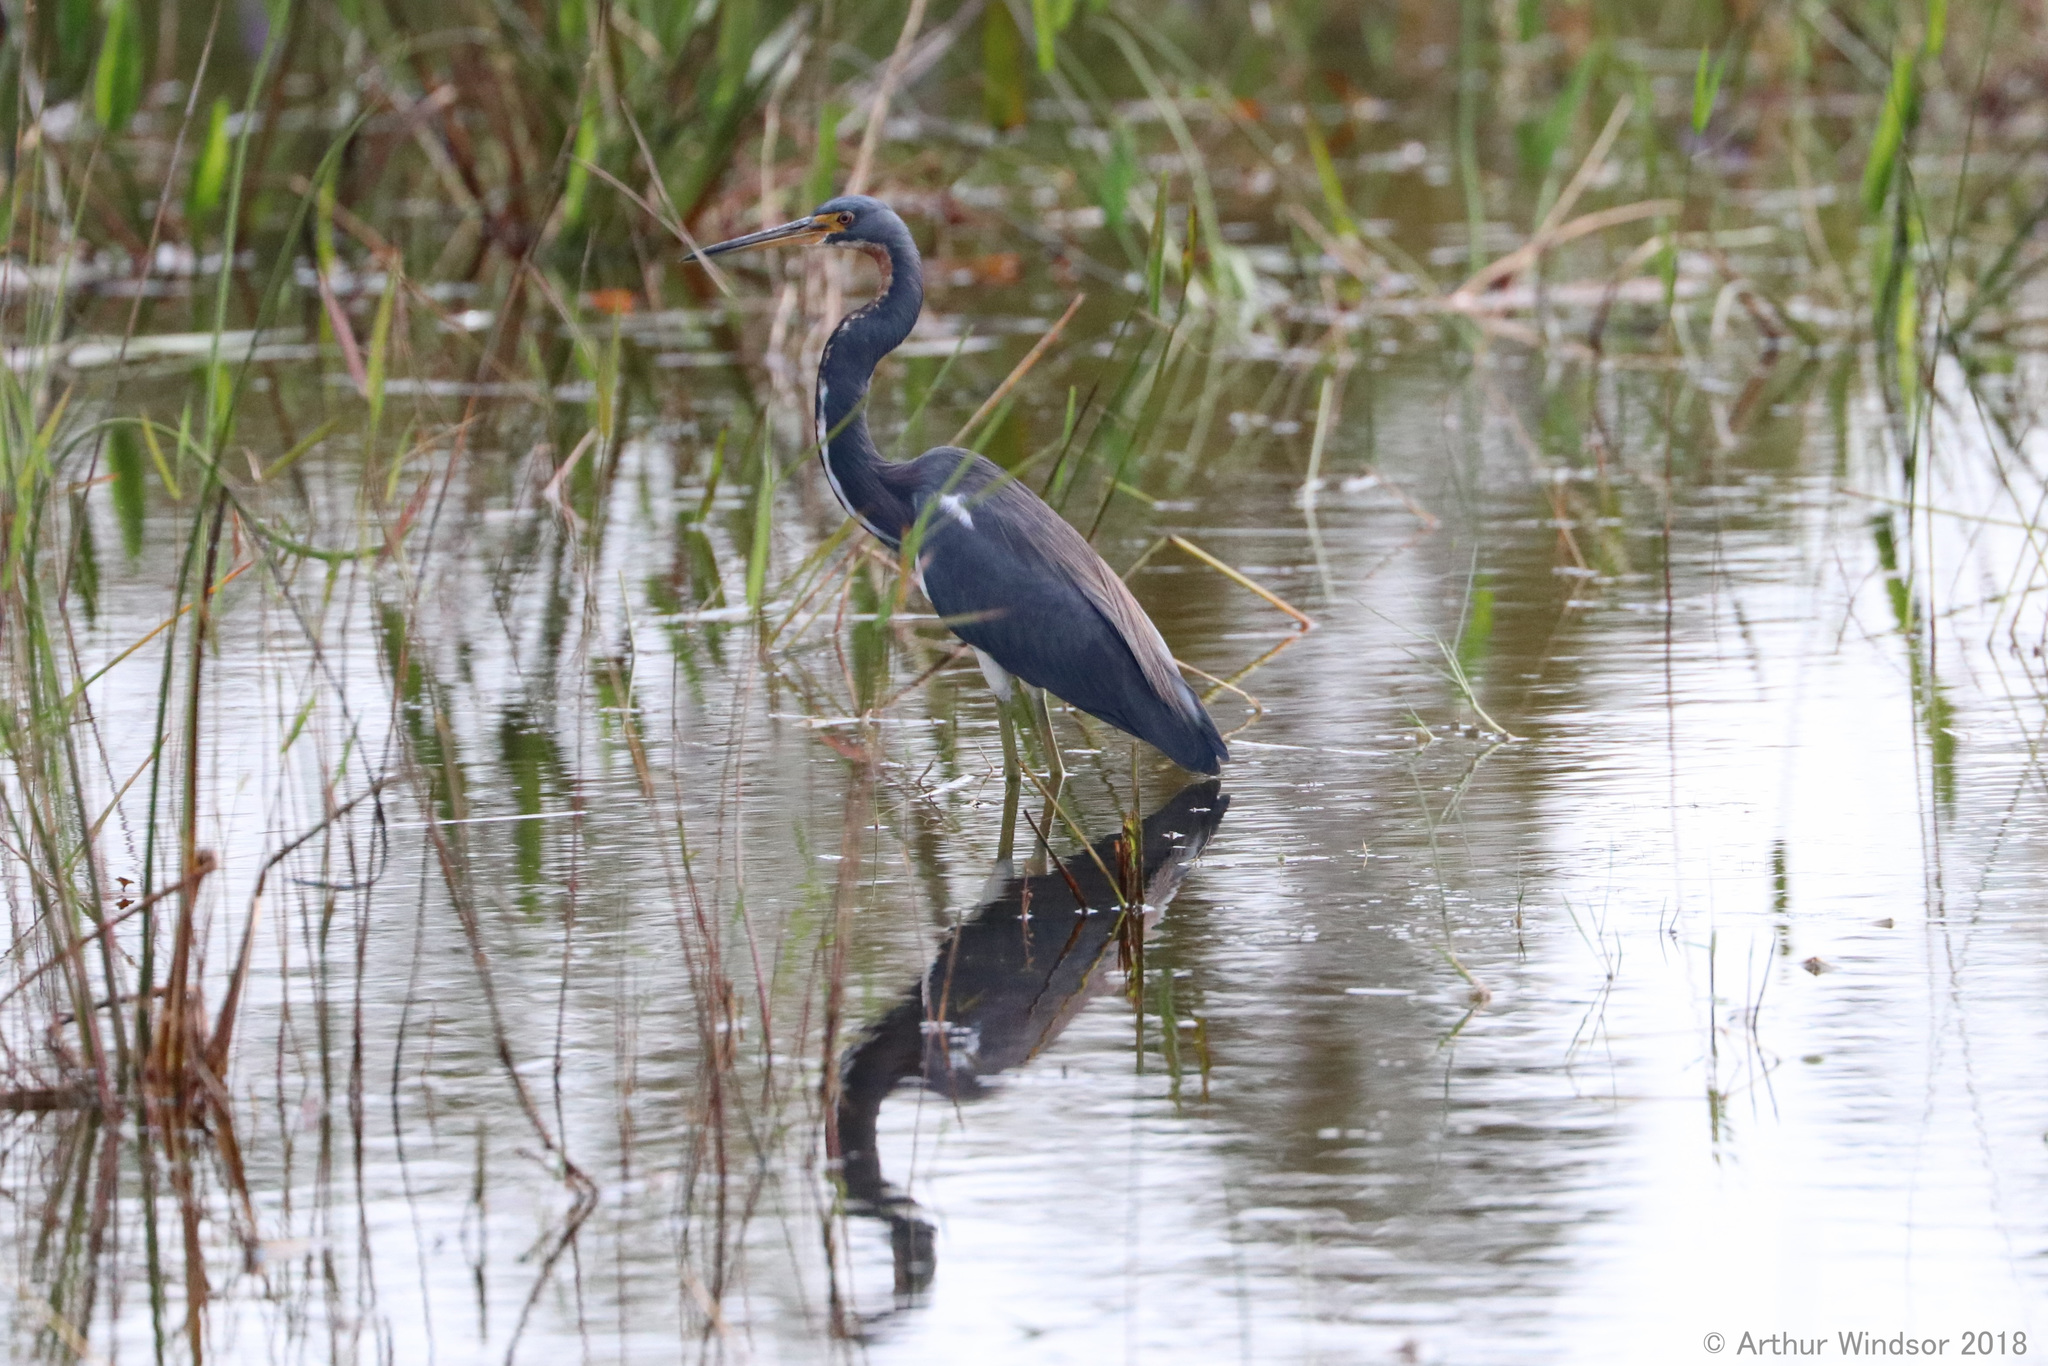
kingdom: Animalia
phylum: Chordata
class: Aves
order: Pelecaniformes
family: Ardeidae
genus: Egretta
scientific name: Egretta tricolor
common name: Tricolored heron
